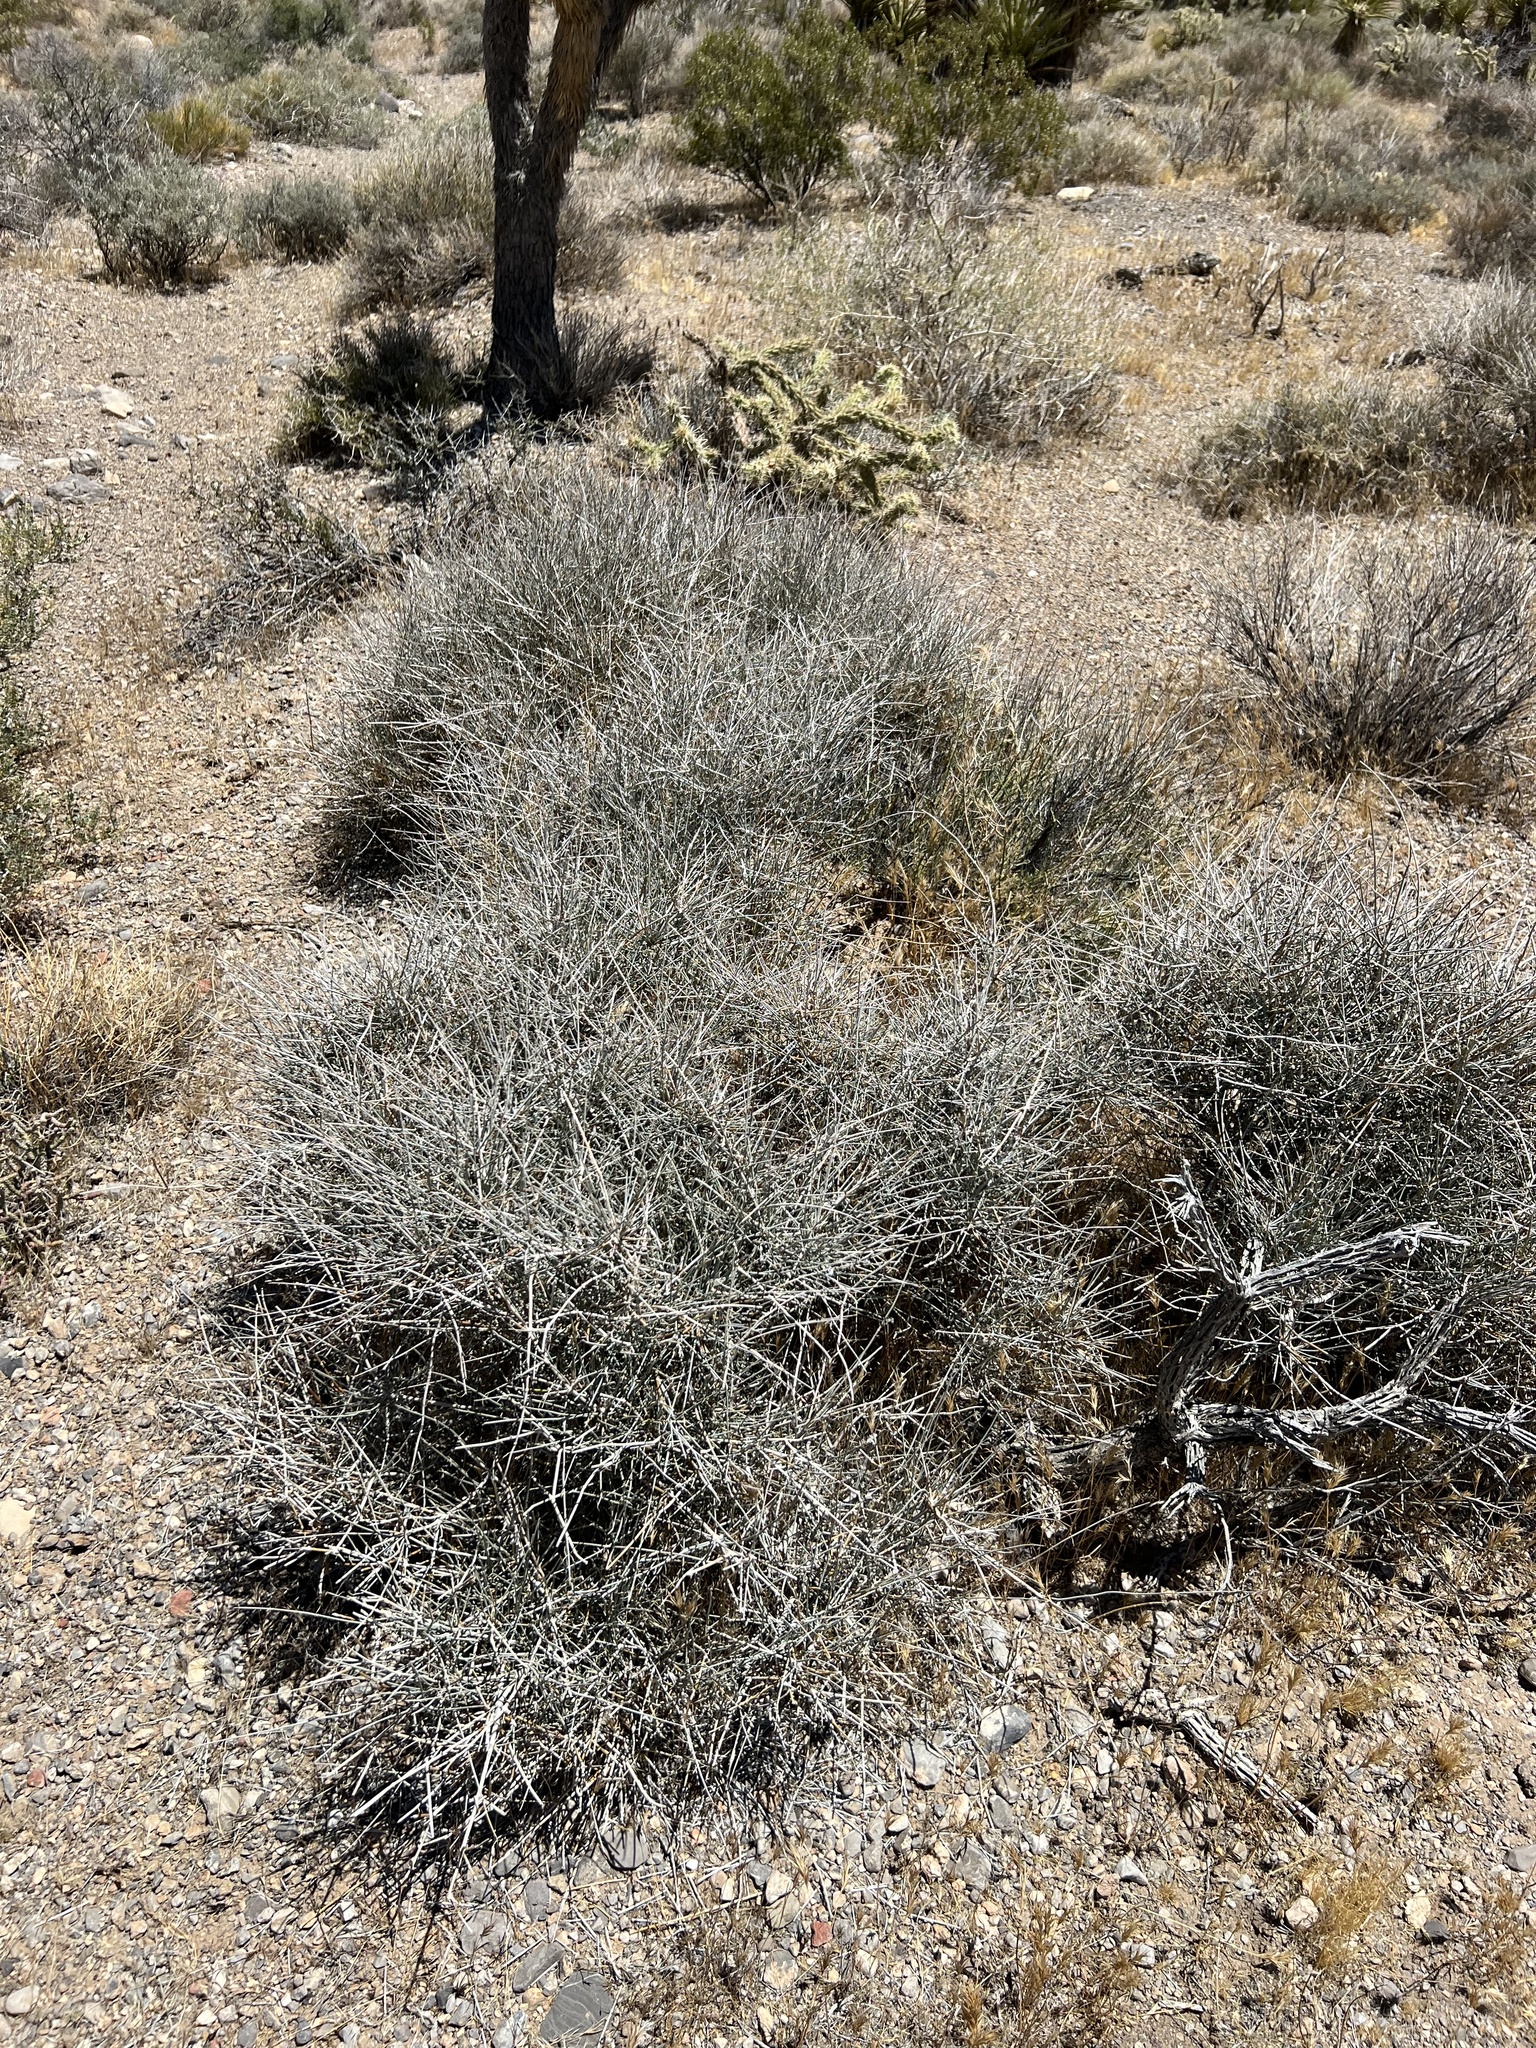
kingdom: Plantae
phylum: Tracheophyta
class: Gnetopsida
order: Ephedrales
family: Ephedraceae
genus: Ephedra
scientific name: Ephedra nevadensis
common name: Gray ephedra
